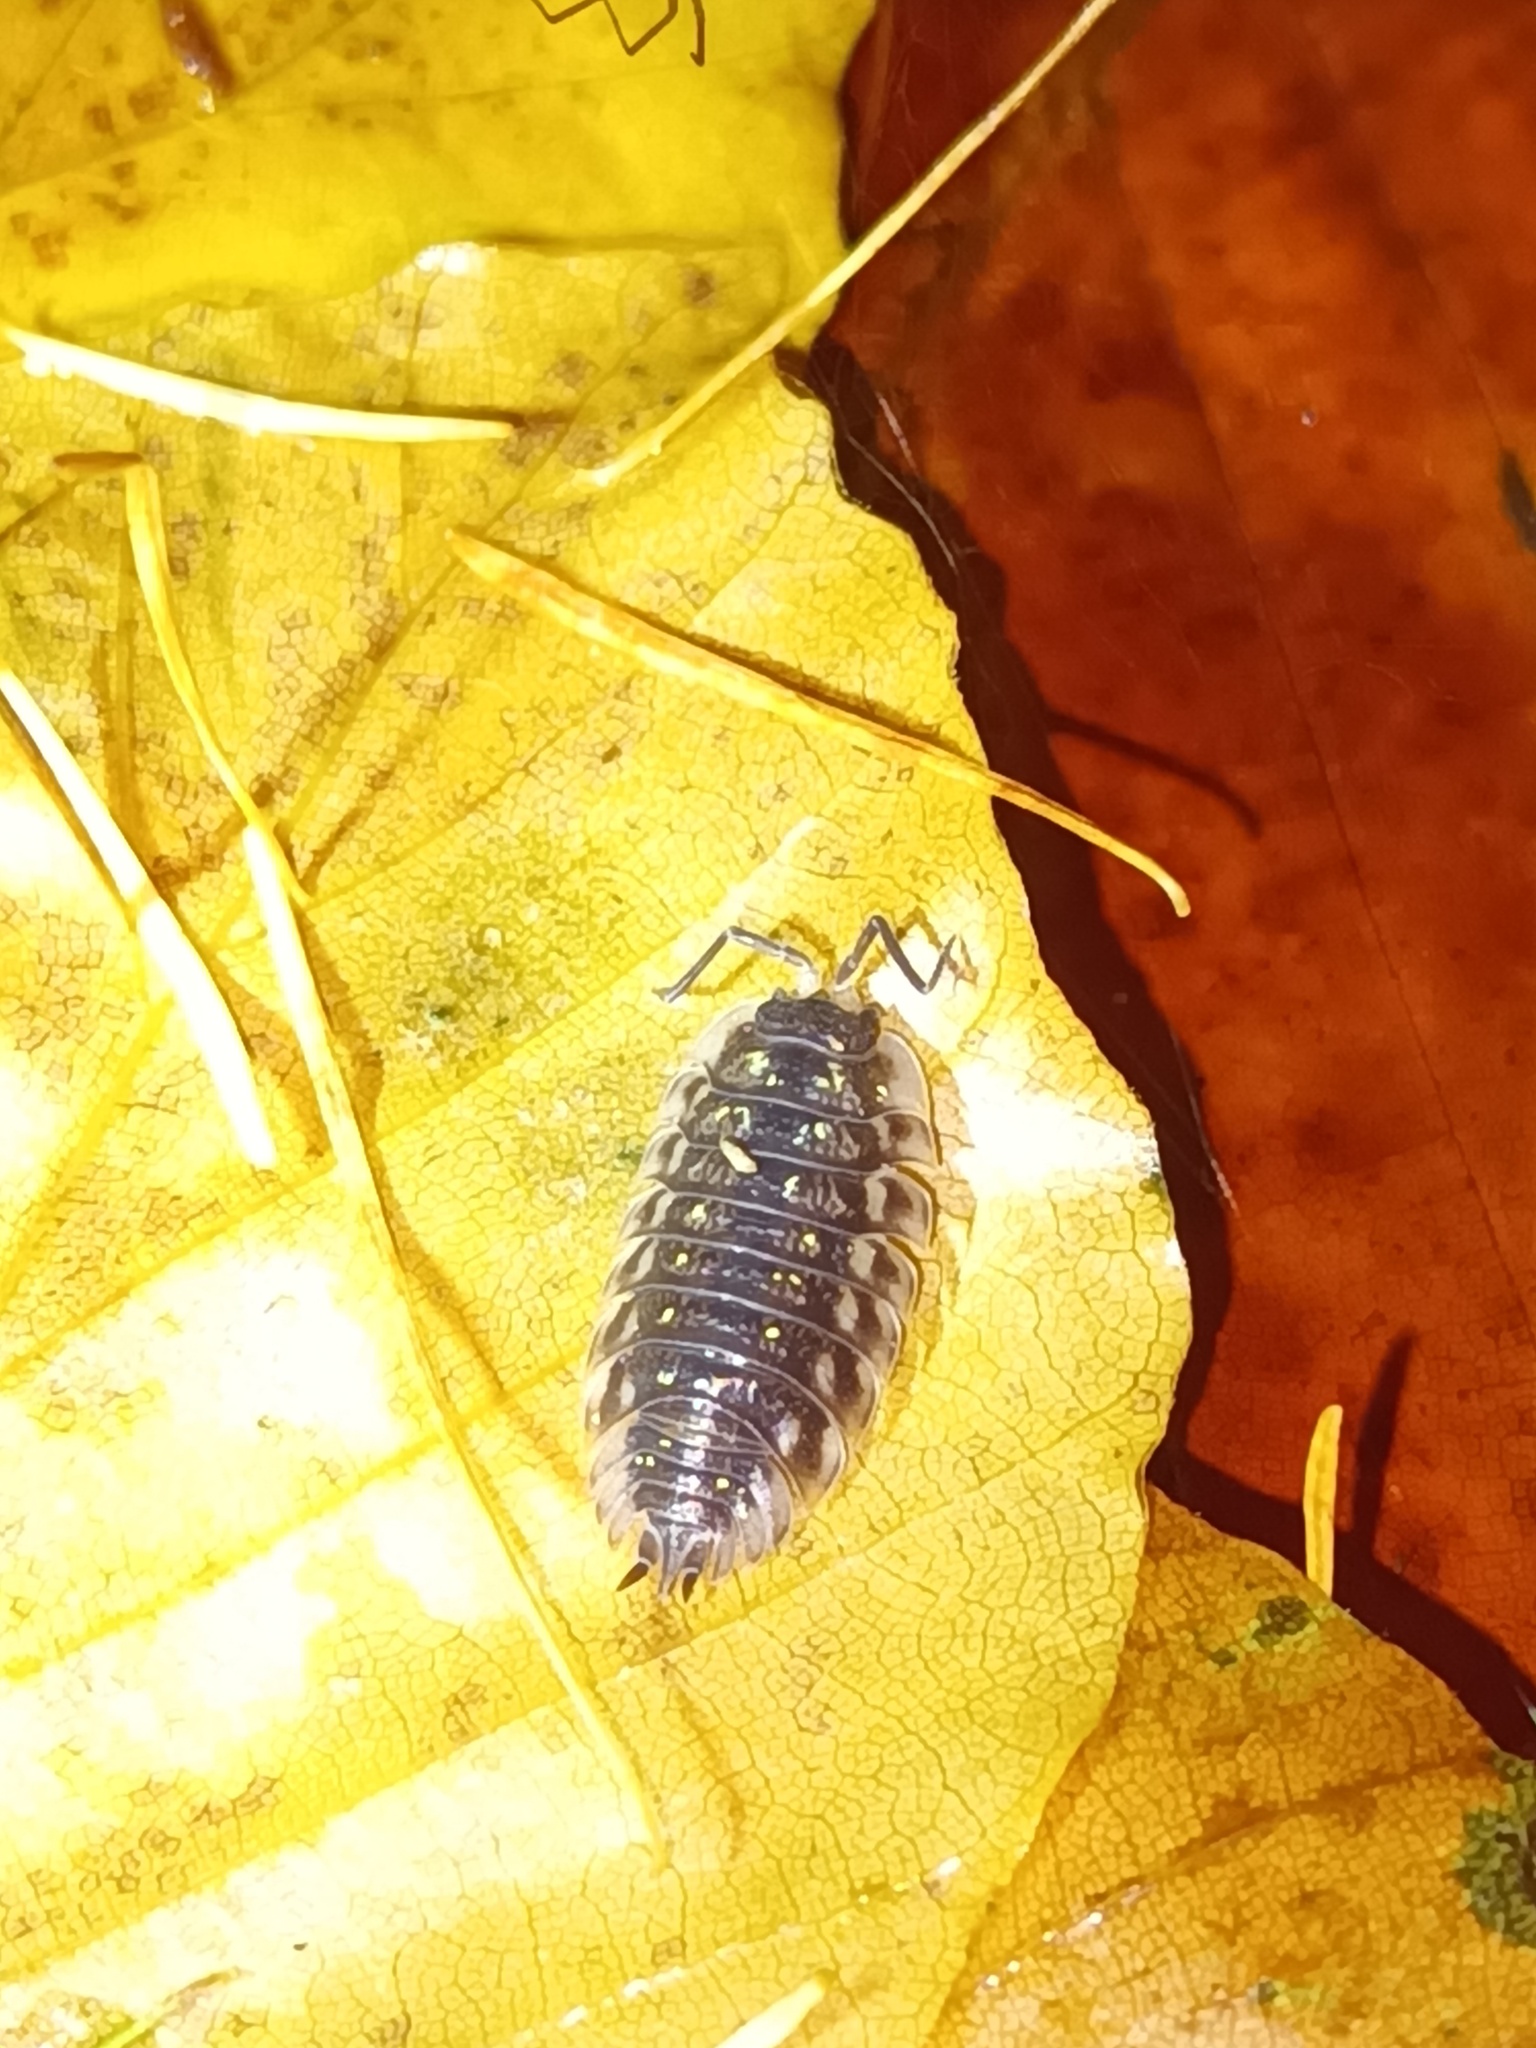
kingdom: Animalia
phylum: Arthropoda
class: Malacostraca
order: Isopoda
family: Oniscidae
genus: Oniscus
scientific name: Oniscus asellus
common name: Common shiny woodlouse
